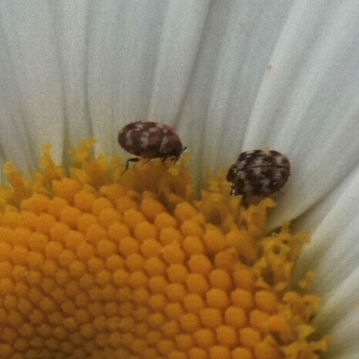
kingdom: Animalia
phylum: Arthropoda
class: Insecta
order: Coleoptera
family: Dermestidae
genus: Anthrenus
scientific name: Anthrenus verbasci
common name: Varied carpet beetle
